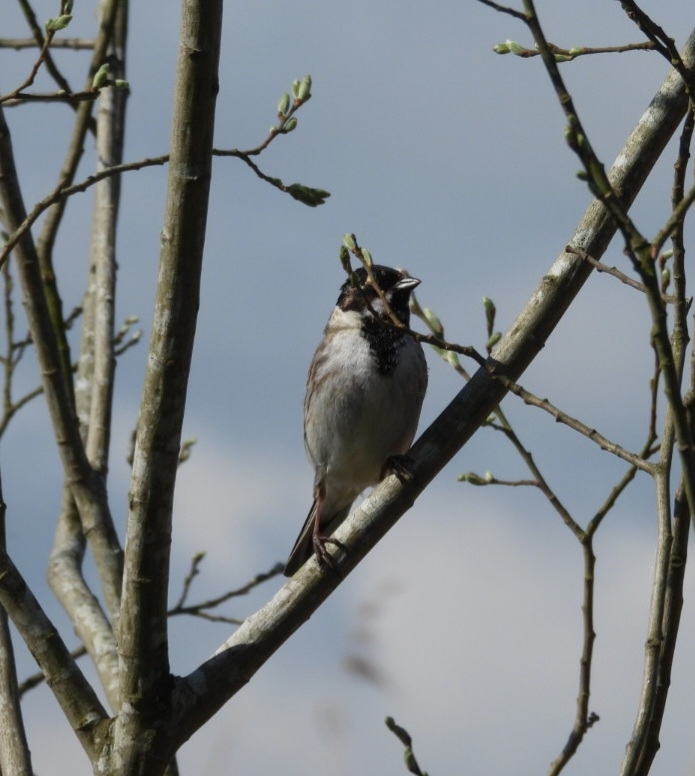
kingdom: Animalia
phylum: Chordata
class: Aves
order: Passeriformes
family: Emberizidae
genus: Emberiza
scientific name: Emberiza schoeniclus
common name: Reed bunting
